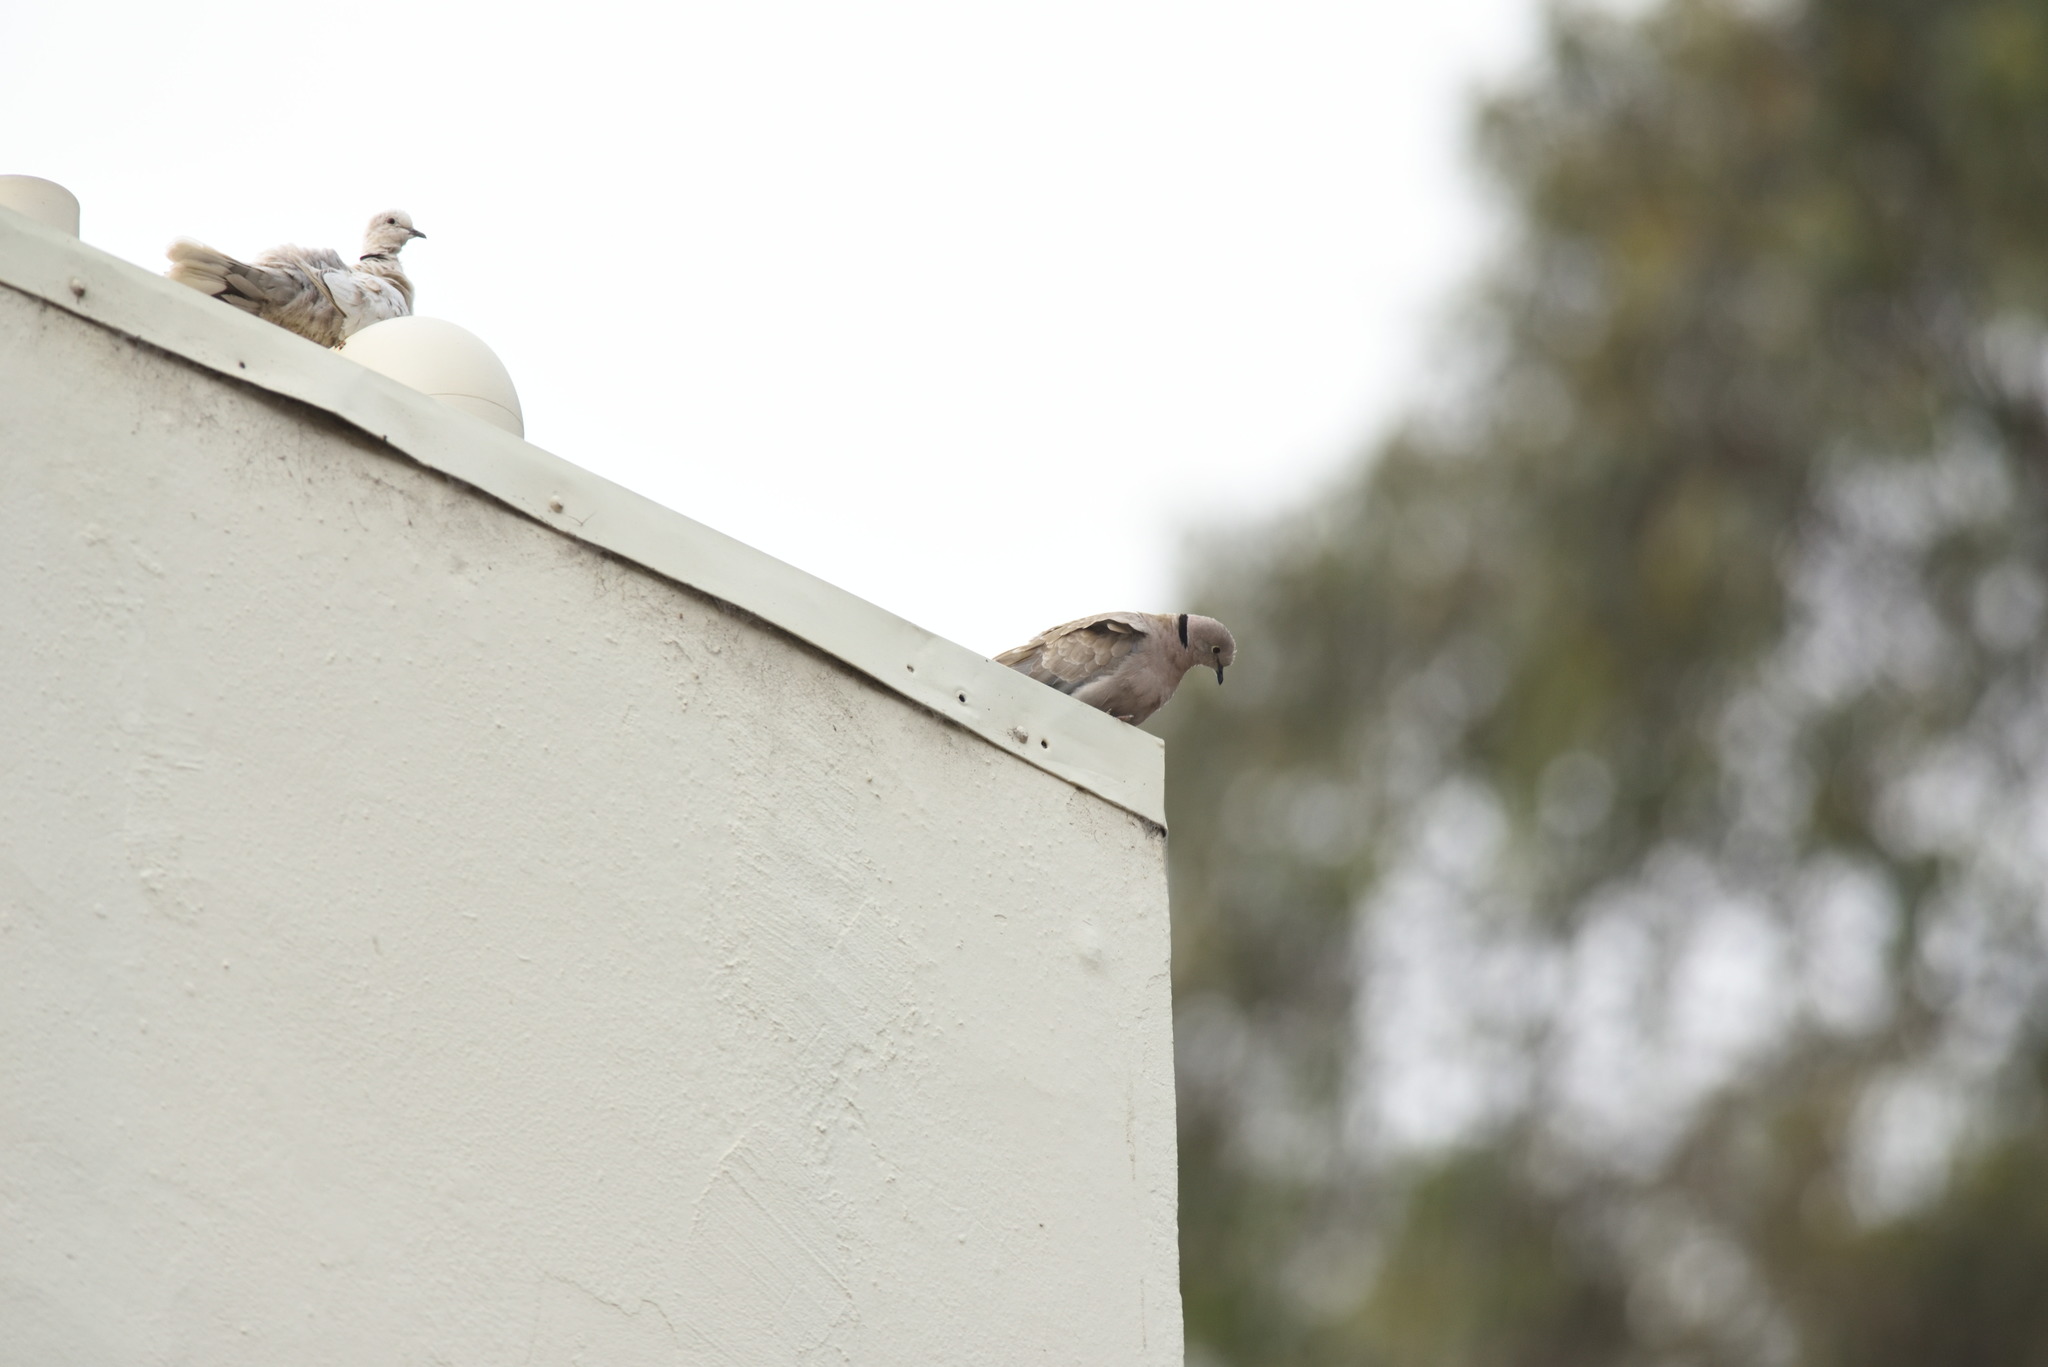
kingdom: Animalia
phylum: Chordata
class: Aves
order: Columbiformes
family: Columbidae
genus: Streptopelia
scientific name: Streptopelia decaocto
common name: Eurasian collared dove
